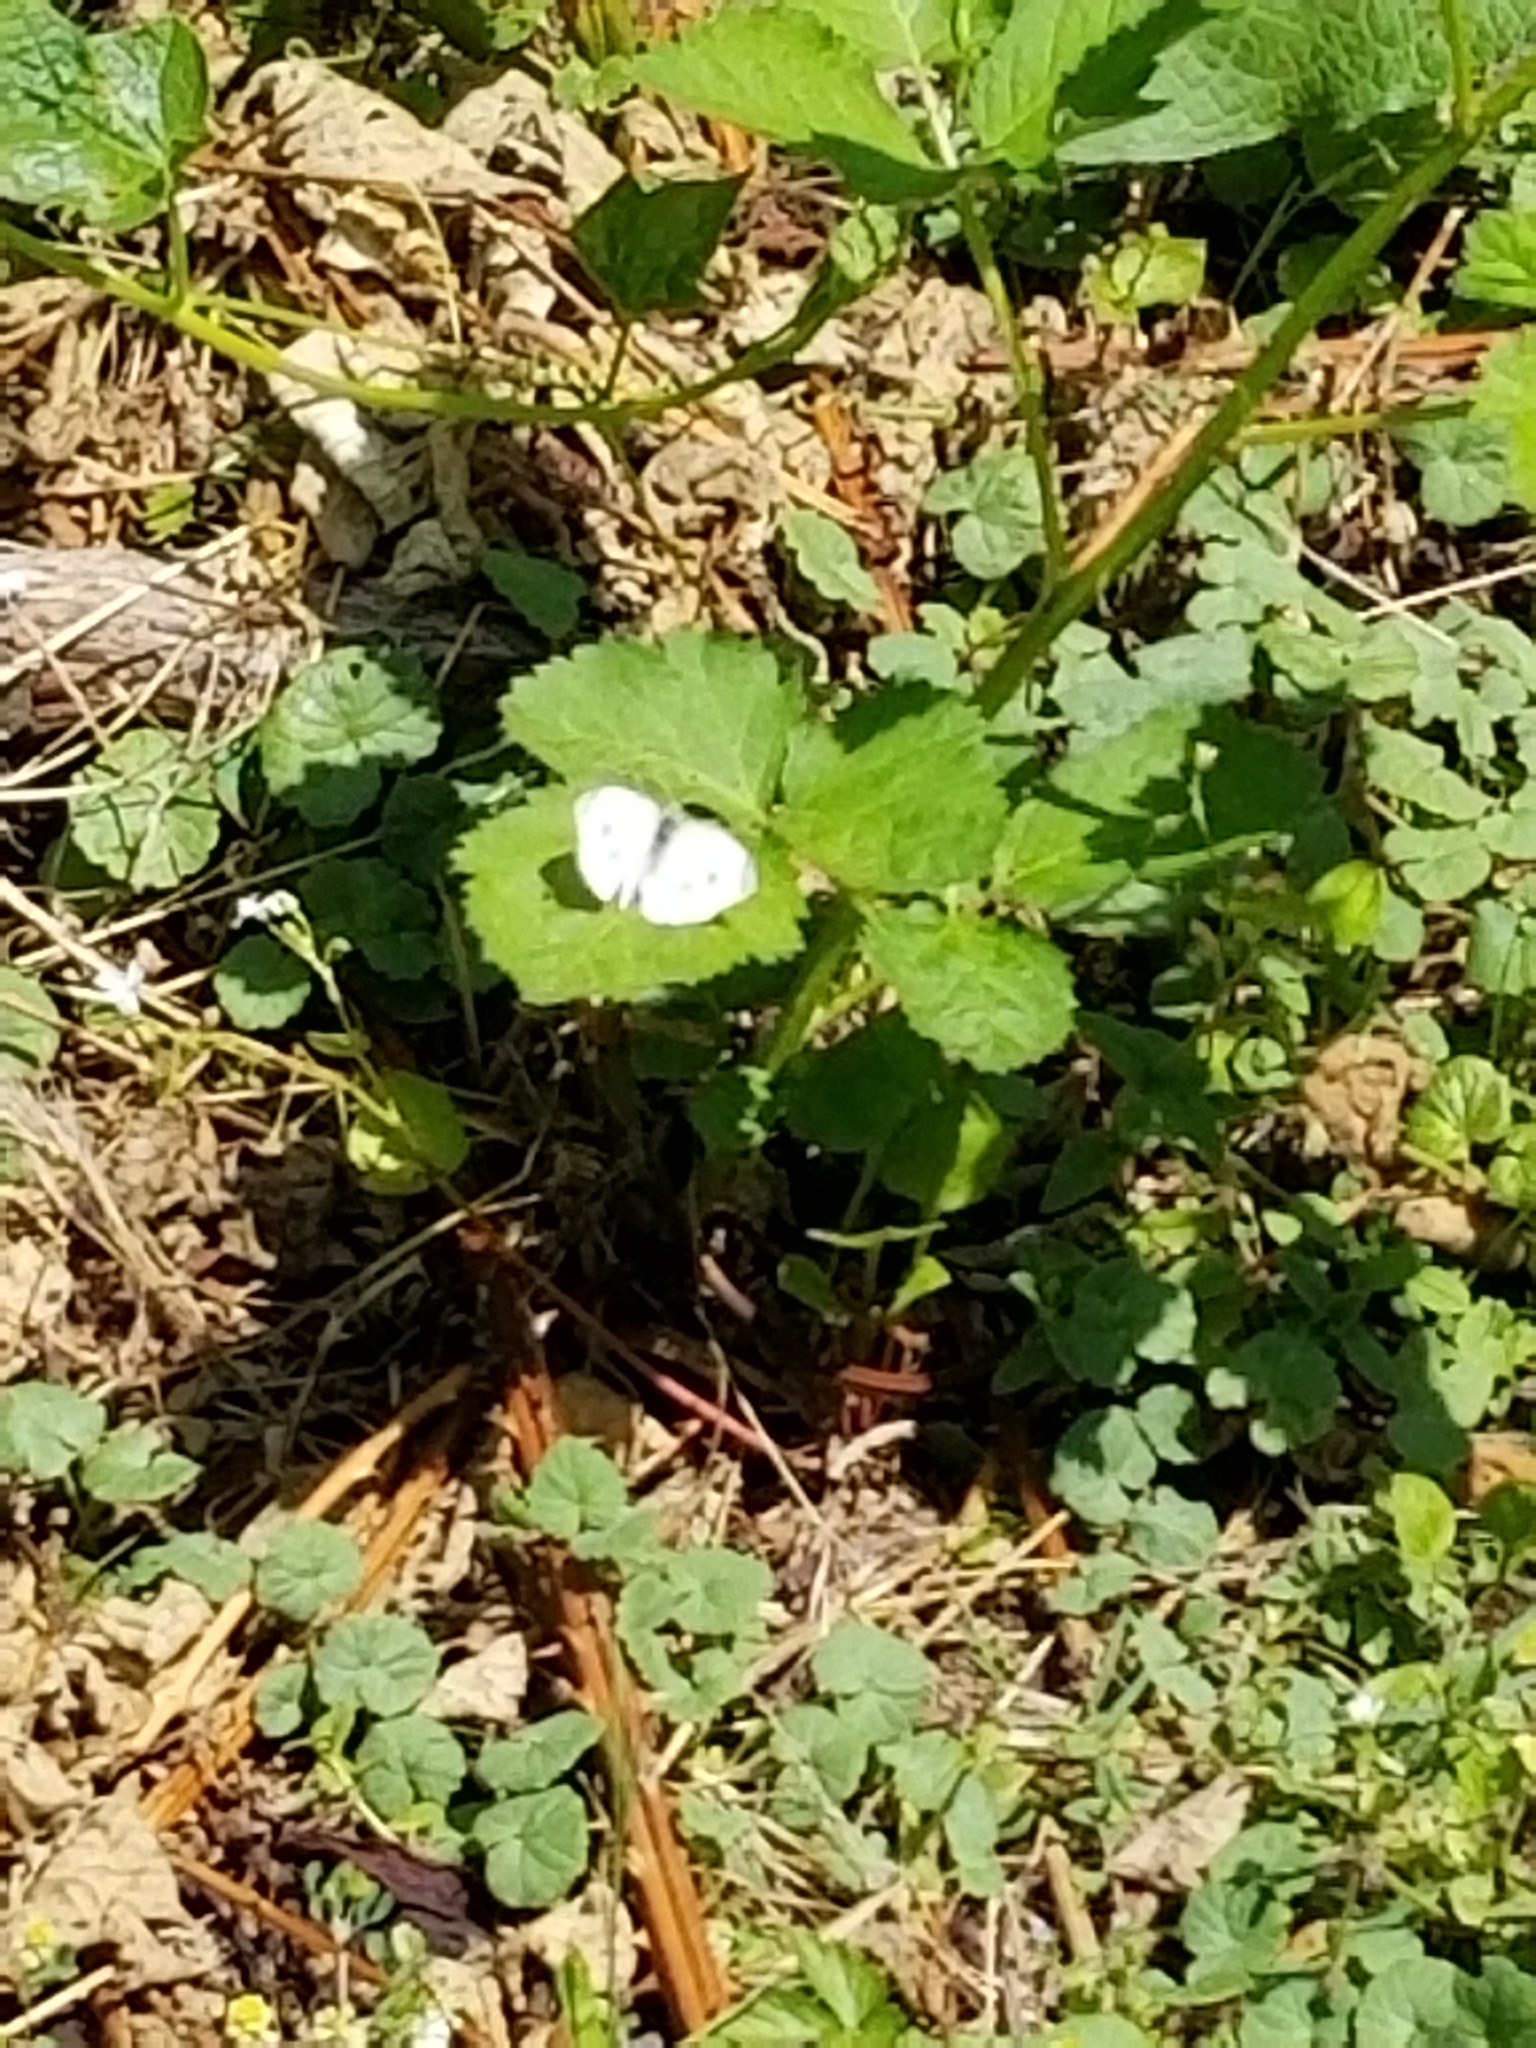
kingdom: Animalia
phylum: Arthropoda
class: Insecta
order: Lepidoptera
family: Pieridae
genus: Pieris
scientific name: Pieris rapae
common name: Small white
